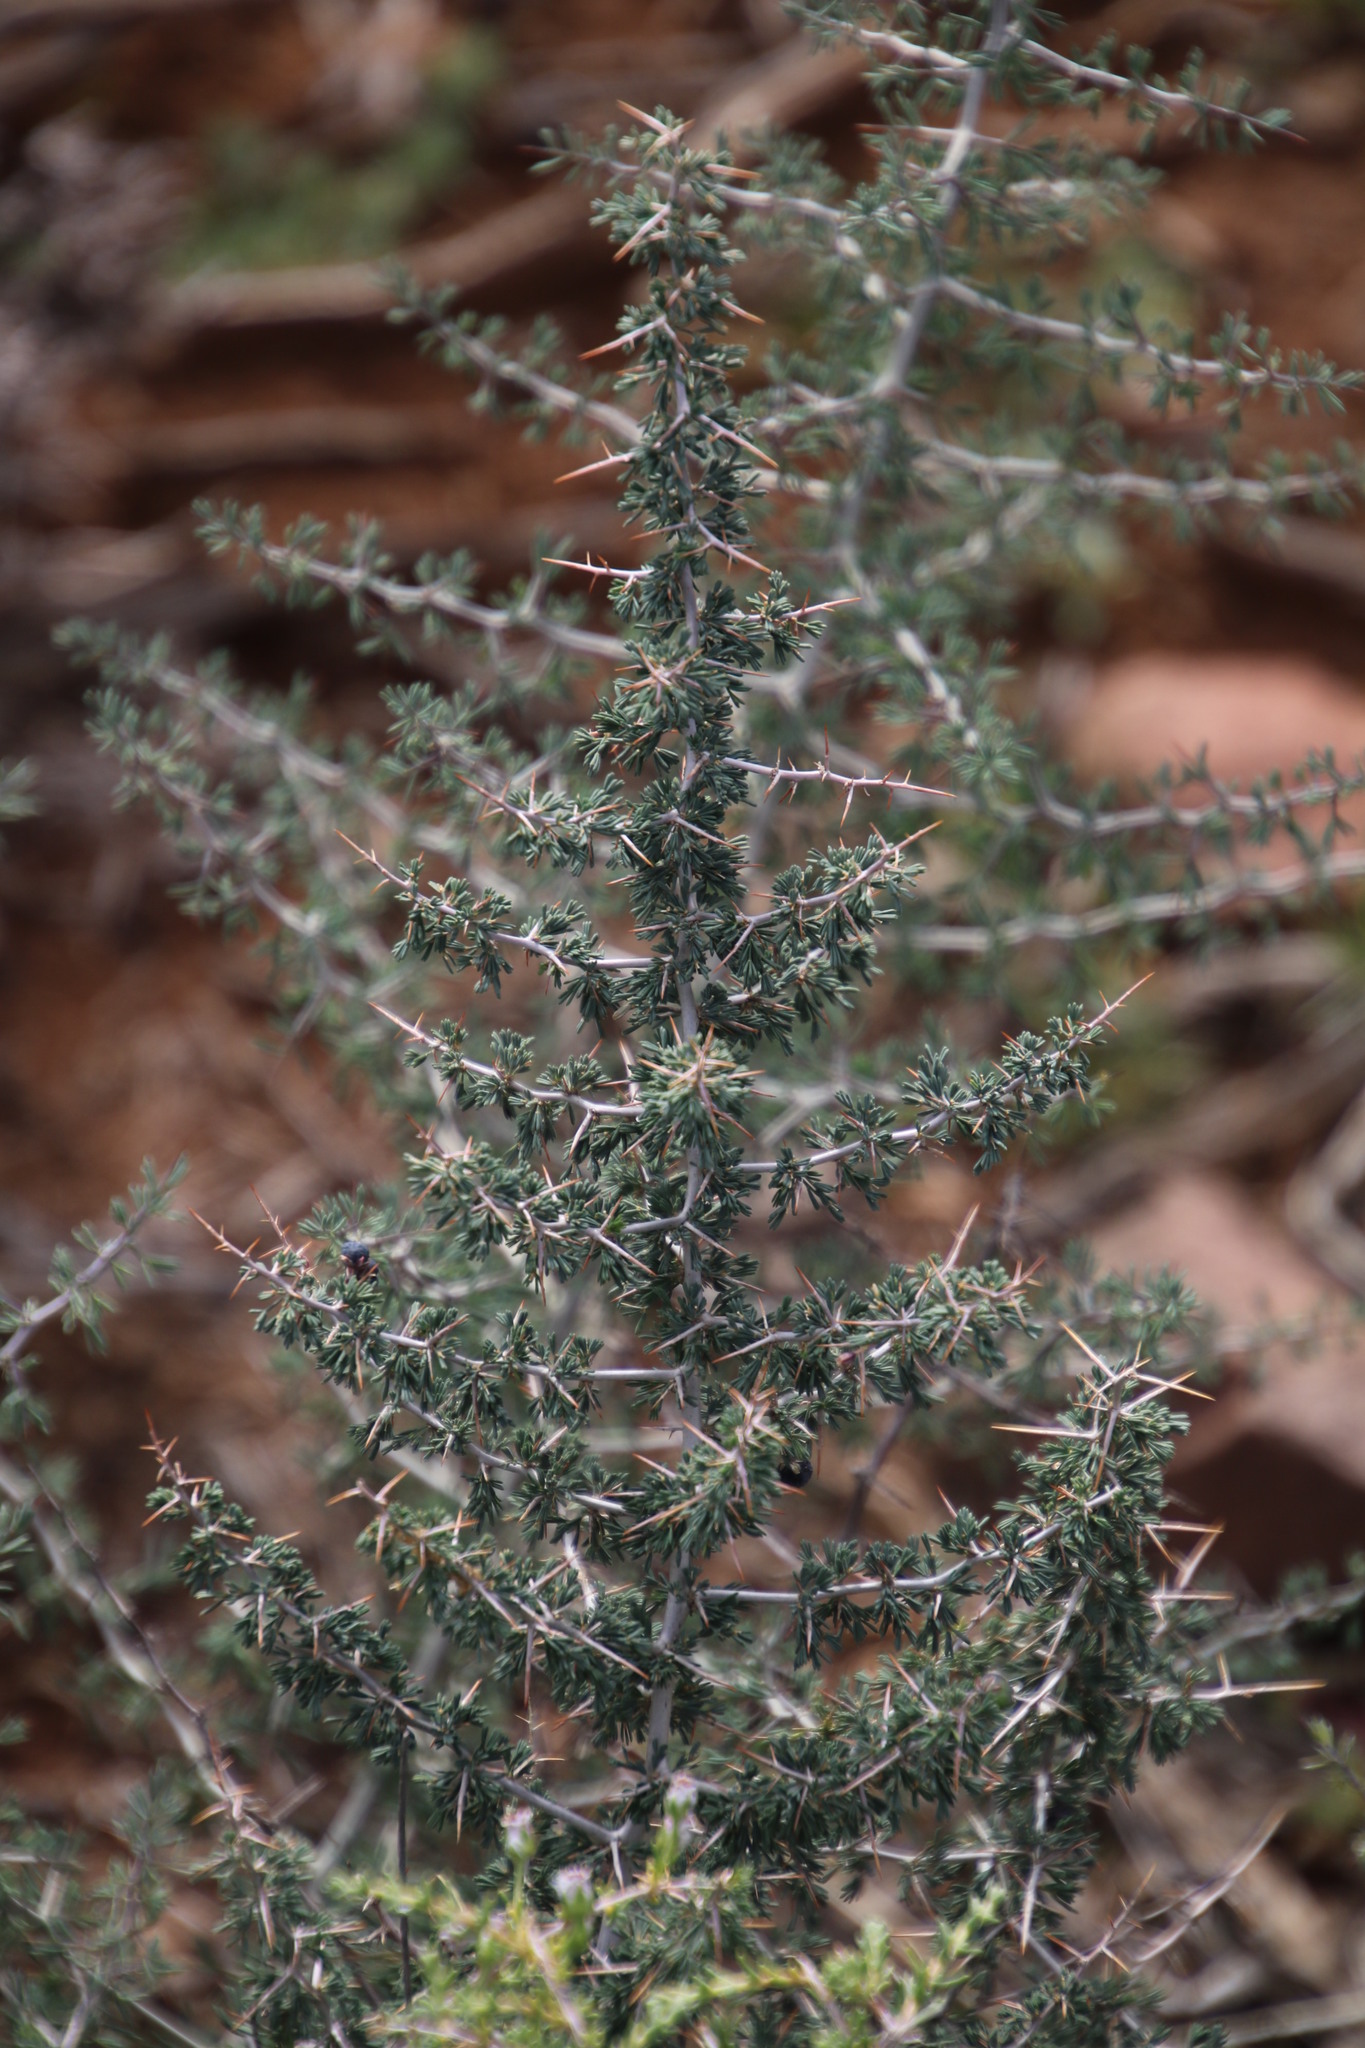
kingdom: Plantae
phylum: Tracheophyta
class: Liliopsida
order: Asparagales
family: Asparagaceae
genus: Asparagus
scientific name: Asparagus capensis
